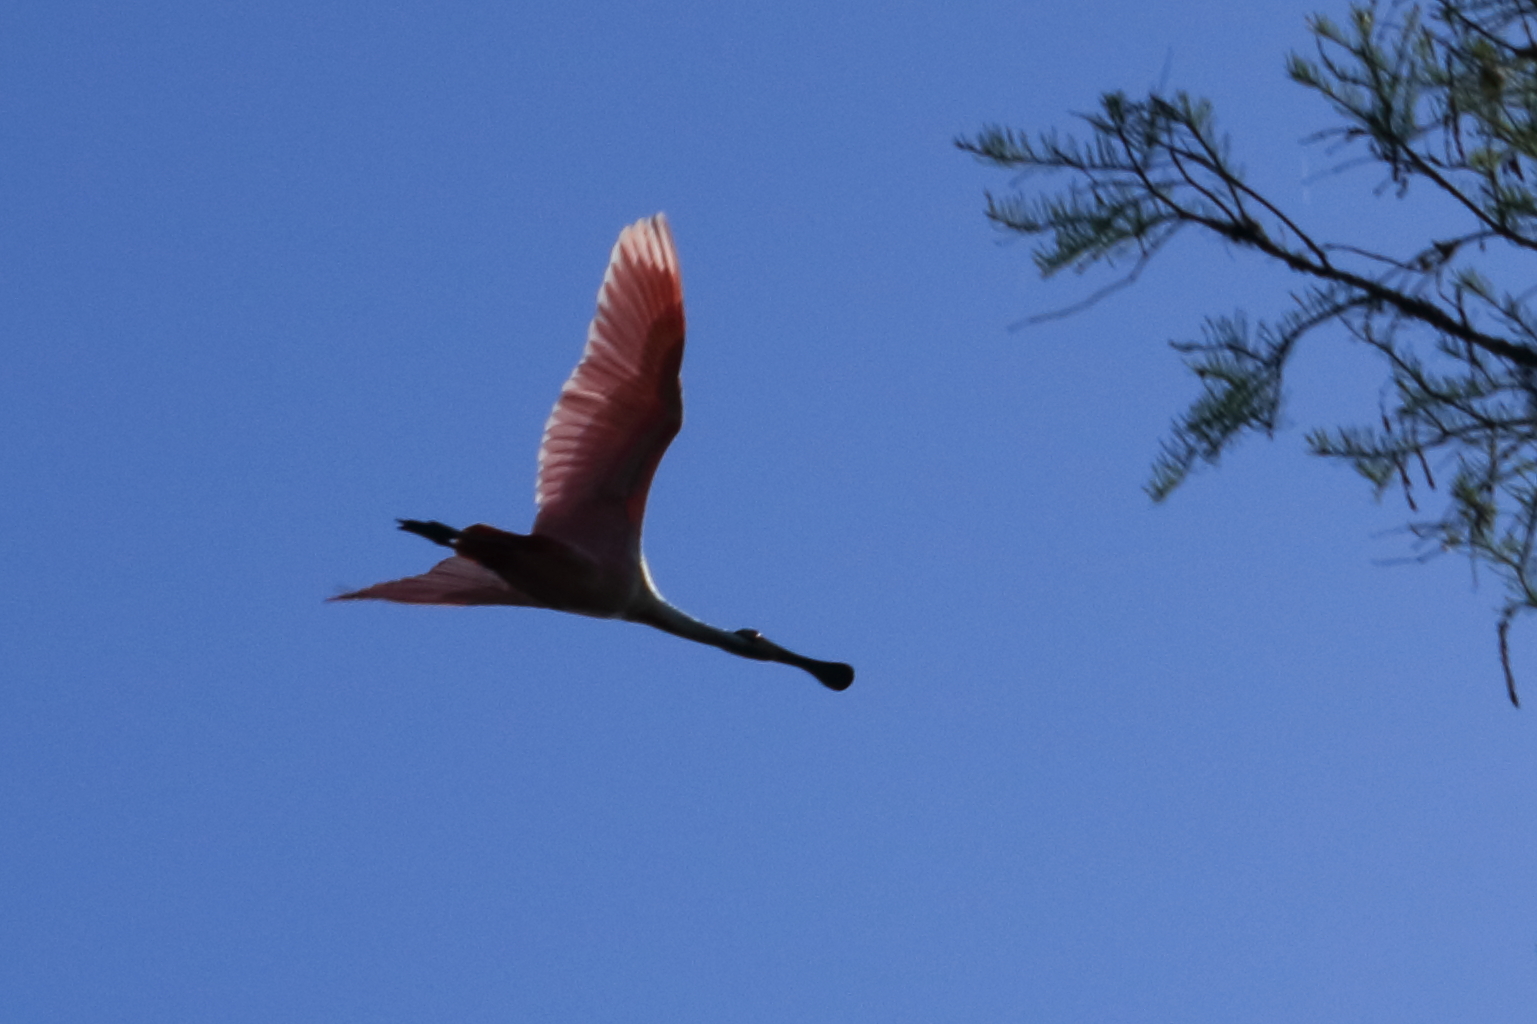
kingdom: Animalia
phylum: Chordata
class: Aves
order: Pelecaniformes
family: Threskiornithidae
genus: Platalea
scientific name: Platalea ajaja
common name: Roseate spoonbill
